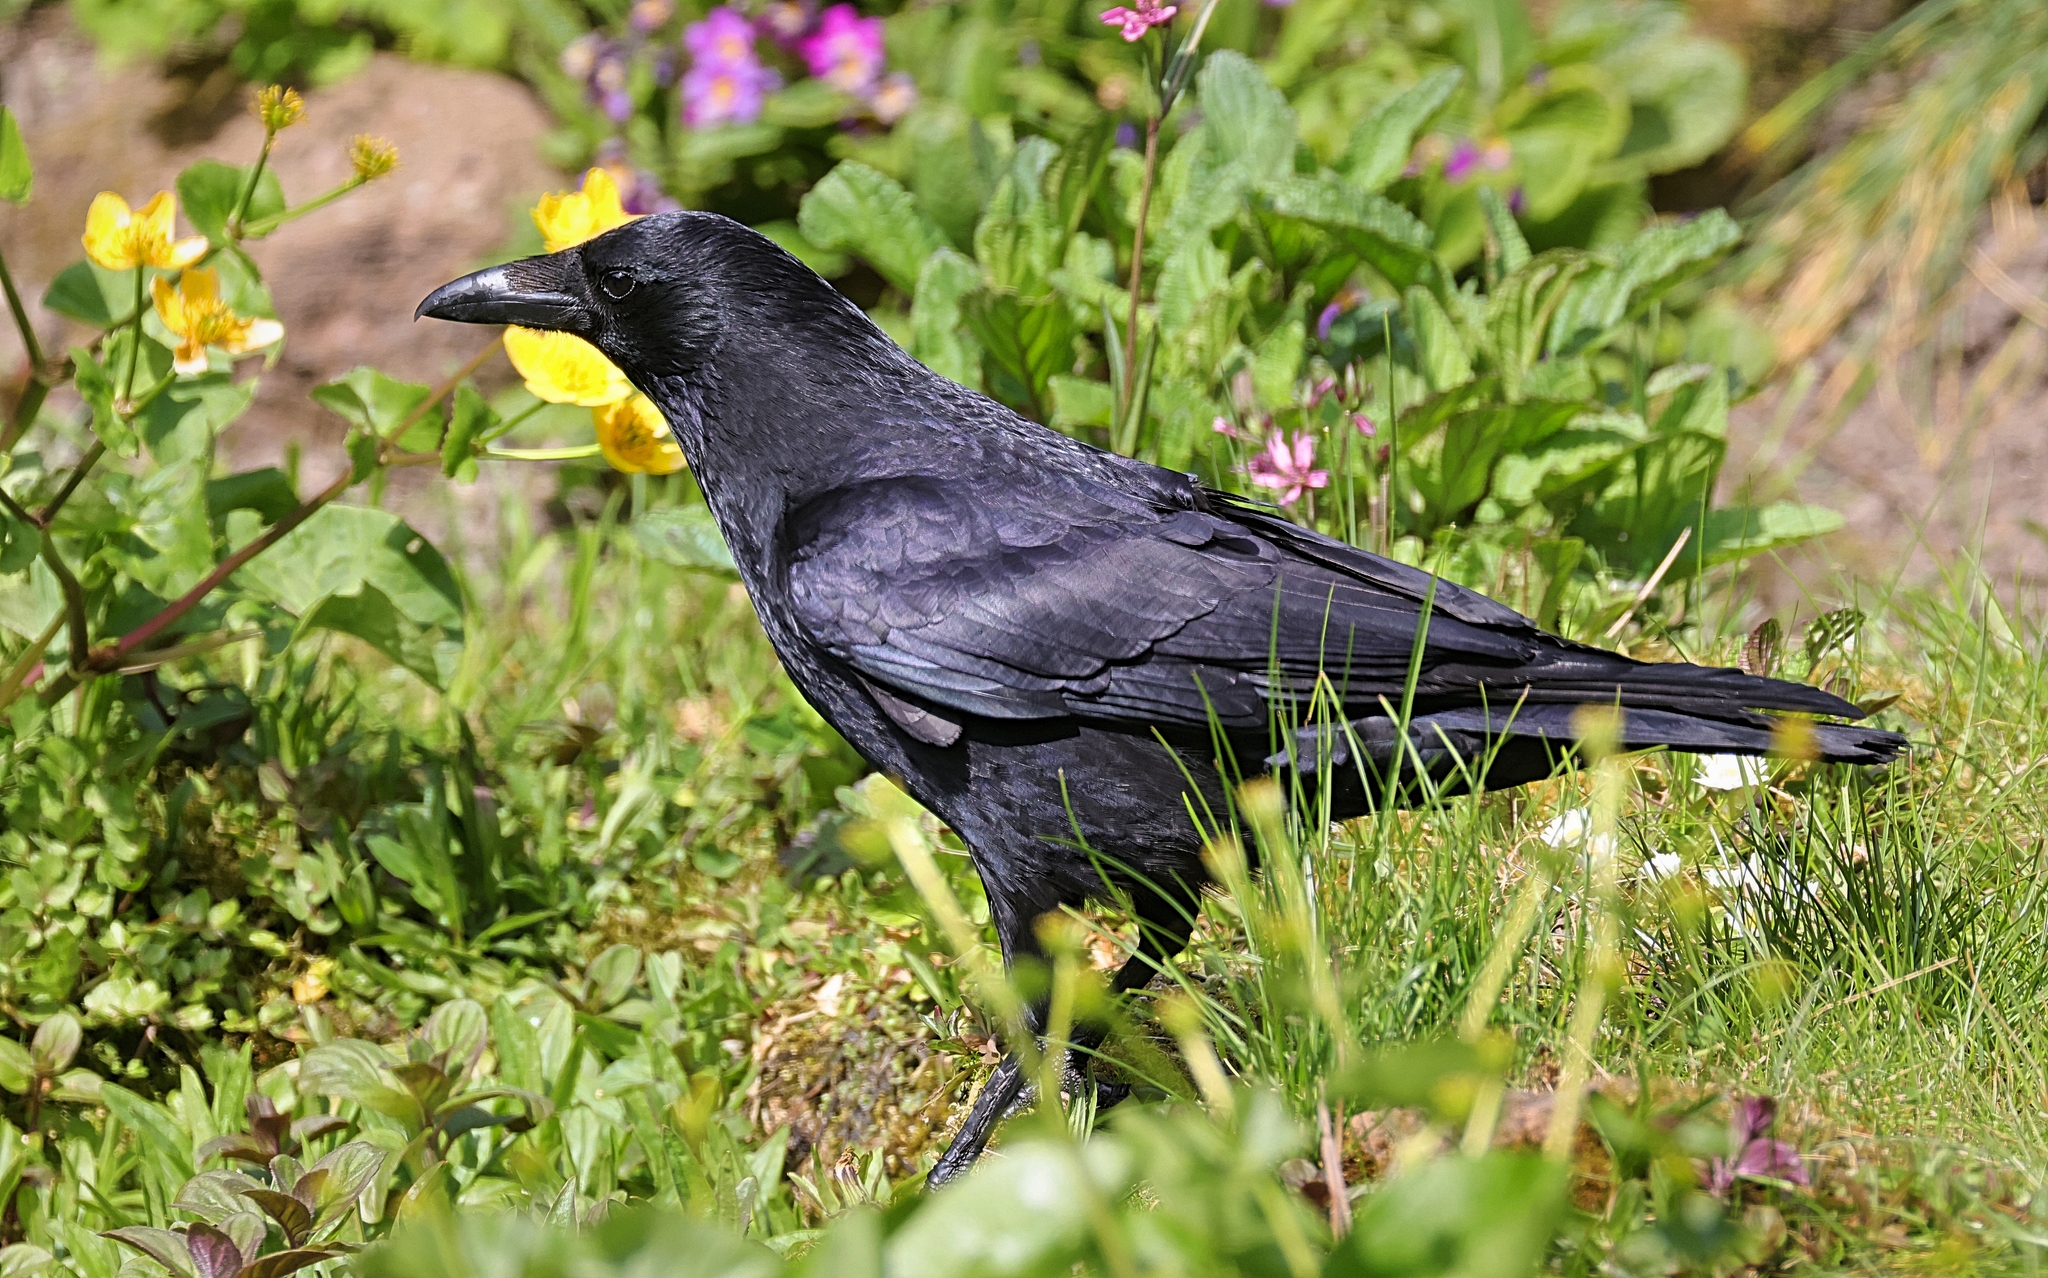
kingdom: Animalia
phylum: Chordata
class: Aves
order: Passeriformes
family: Corvidae
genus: Corvus
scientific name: Corvus corone
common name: Carrion crow
